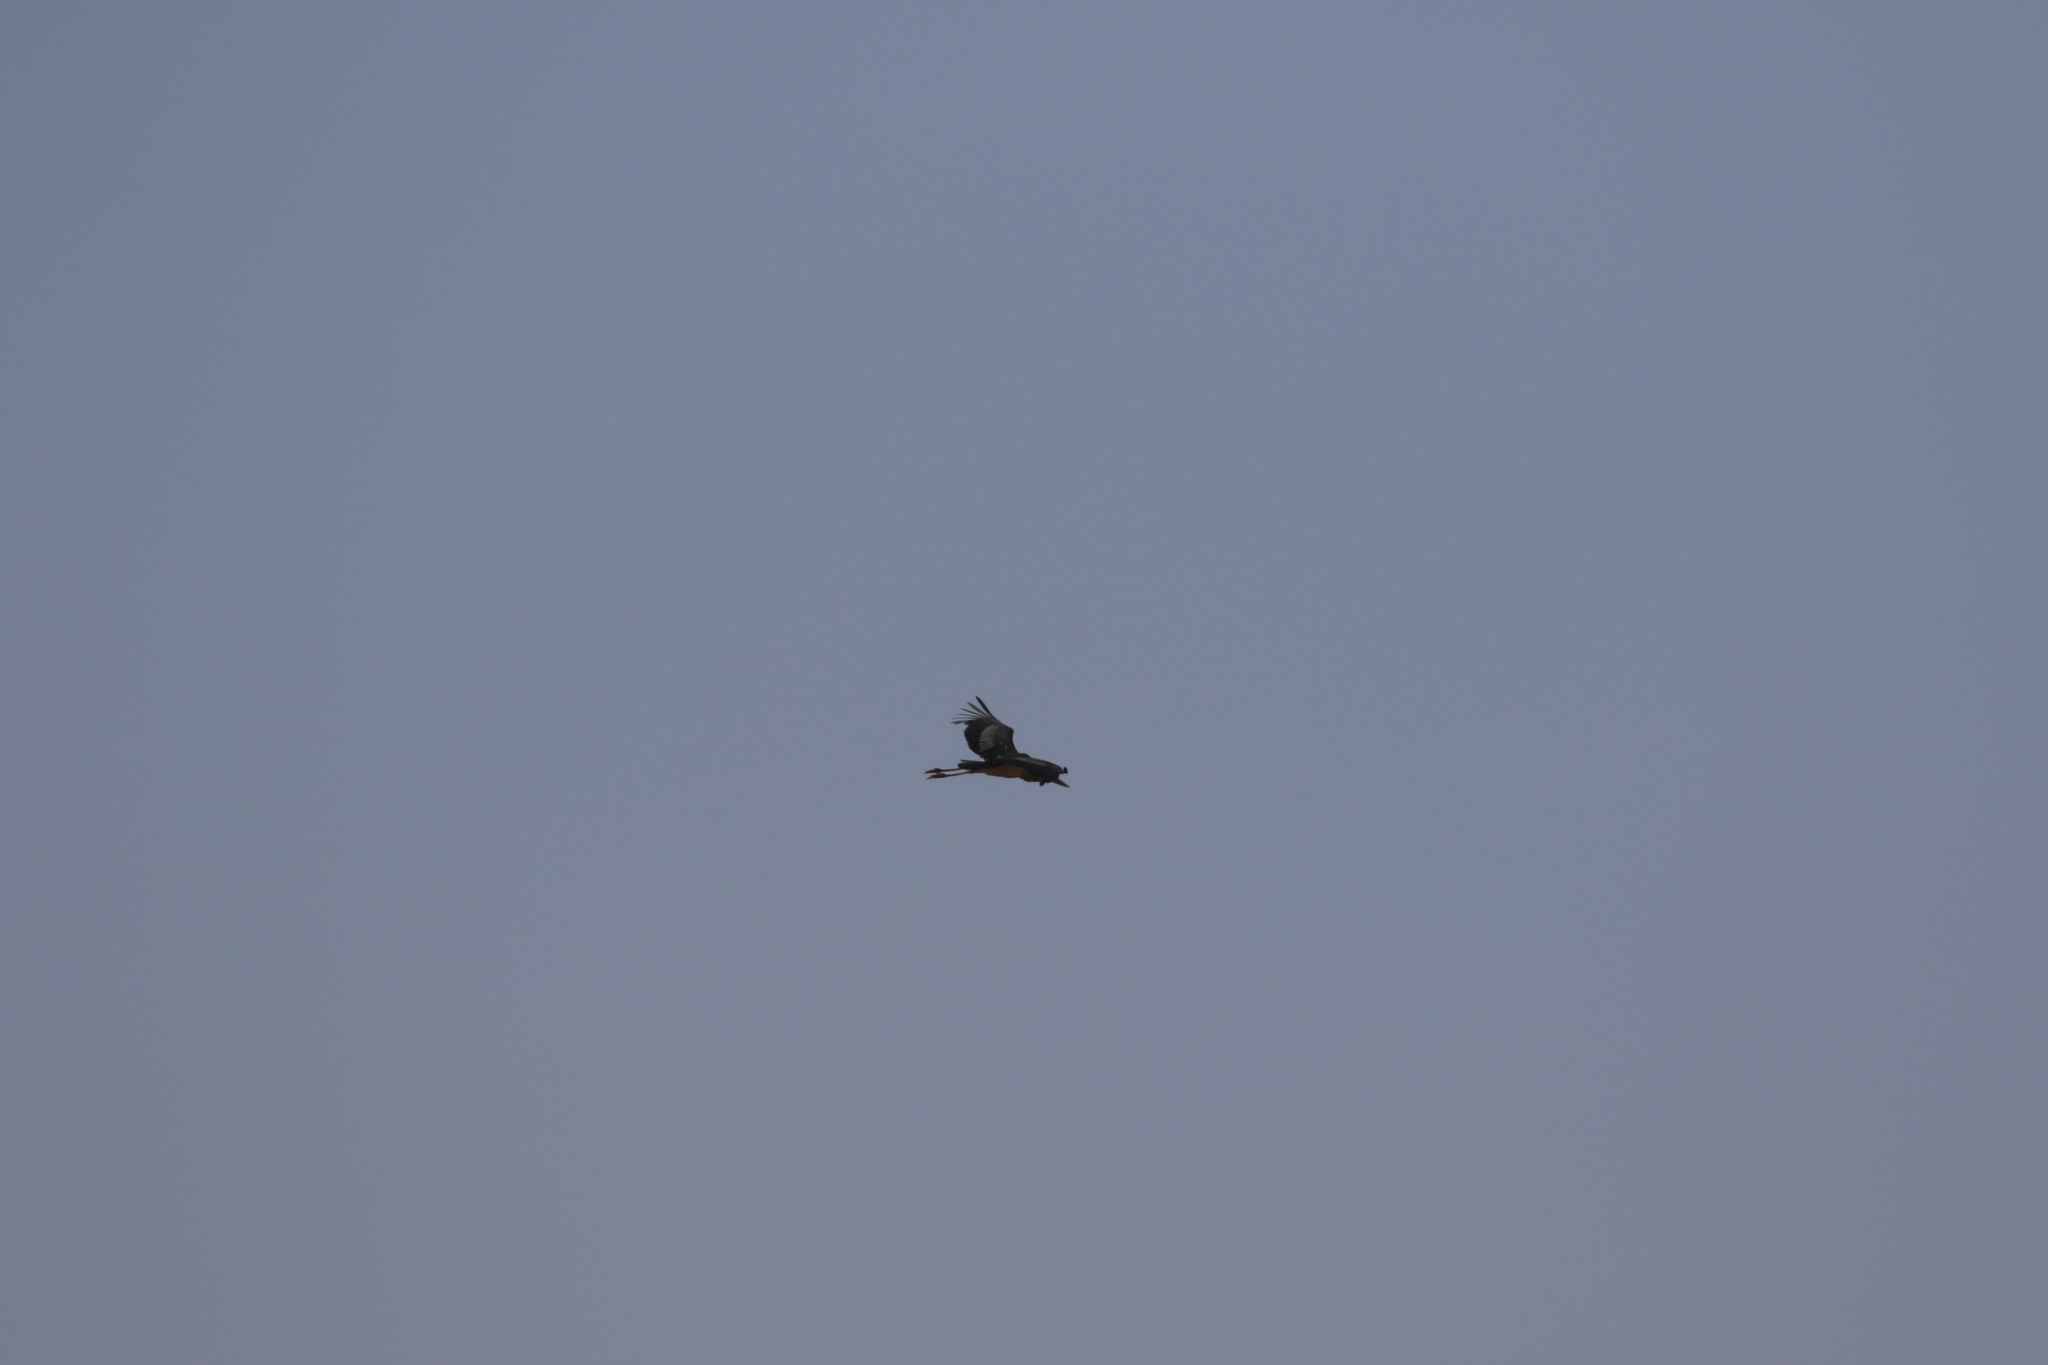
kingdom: Animalia
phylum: Chordata
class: Aves
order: Ciconiiformes
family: Ciconiidae
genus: Leptoptilos
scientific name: Leptoptilos crumenifer
